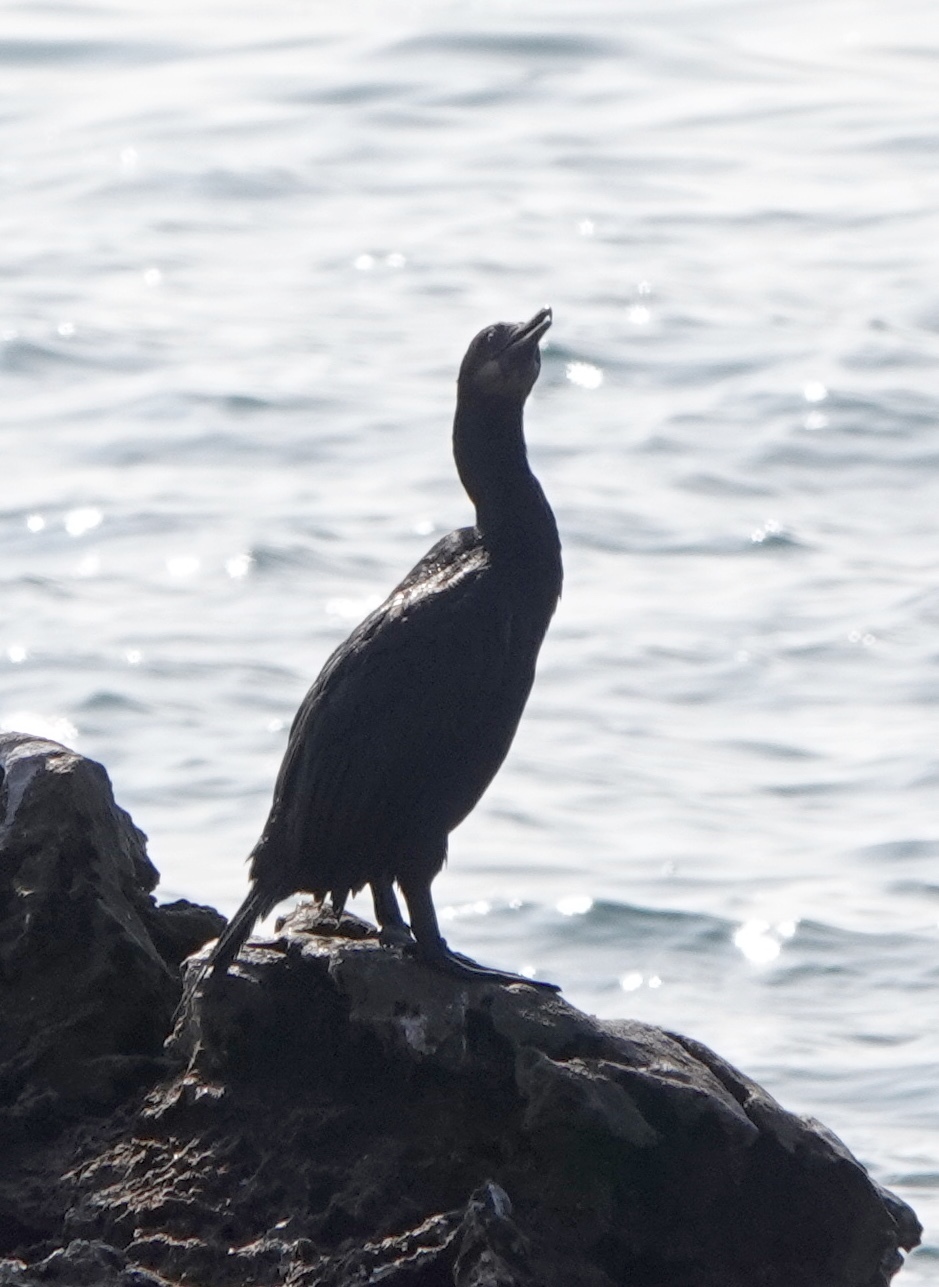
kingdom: Animalia
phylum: Chordata
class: Aves
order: Suliformes
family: Phalacrocoracidae
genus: Urile
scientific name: Urile penicillatus
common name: Brandt's cormorant
